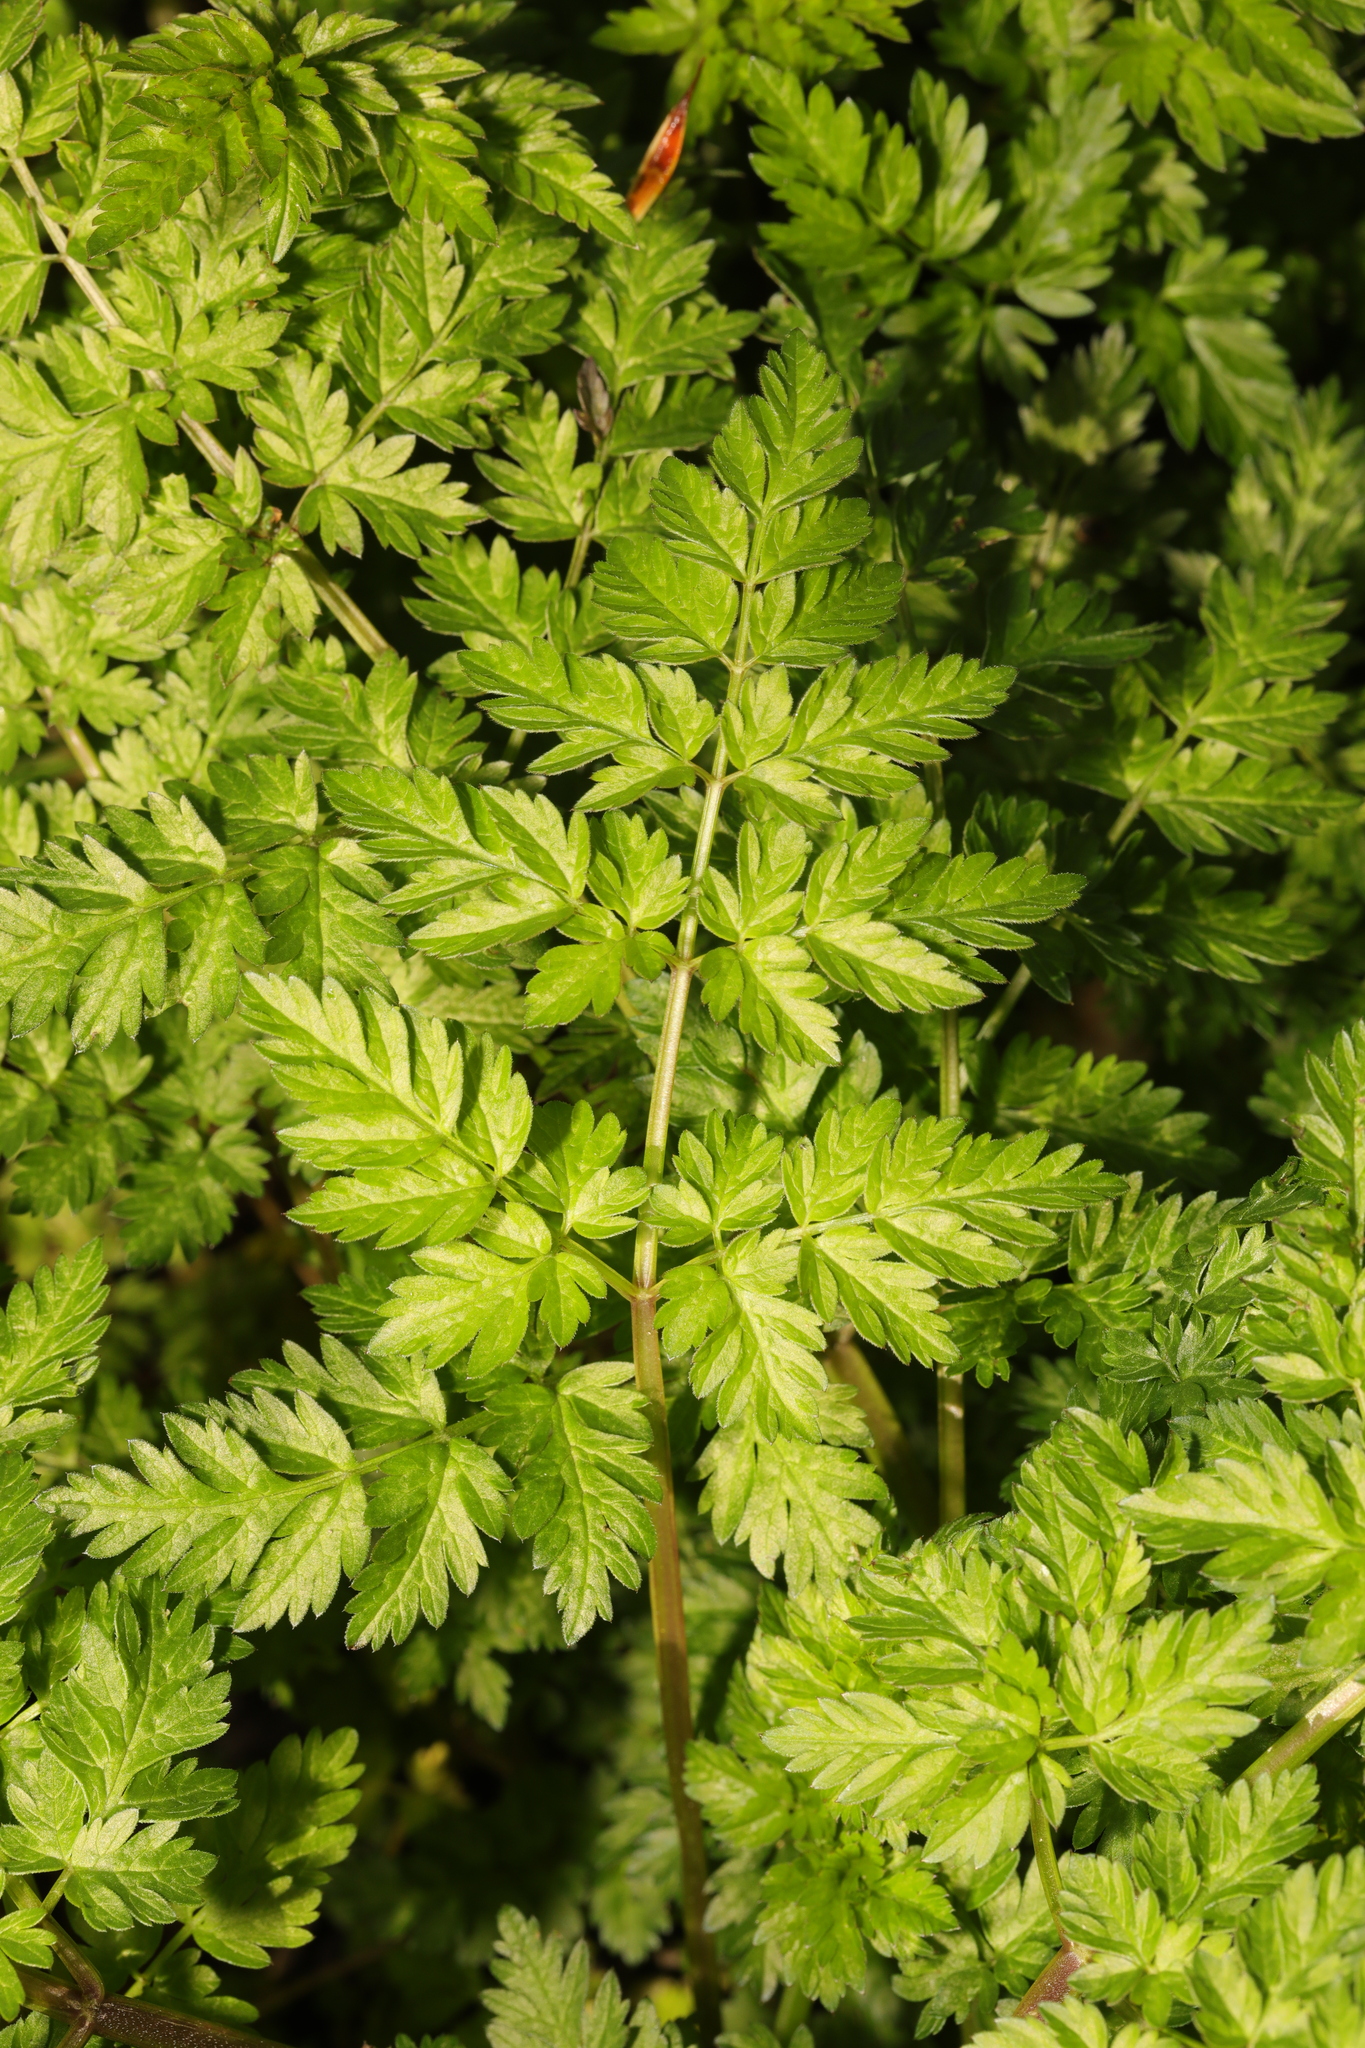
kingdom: Plantae
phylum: Tracheophyta
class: Magnoliopsida
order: Apiales
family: Apiaceae
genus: Anthriscus
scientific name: Anthriscus sylvestris
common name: Cow parsley
